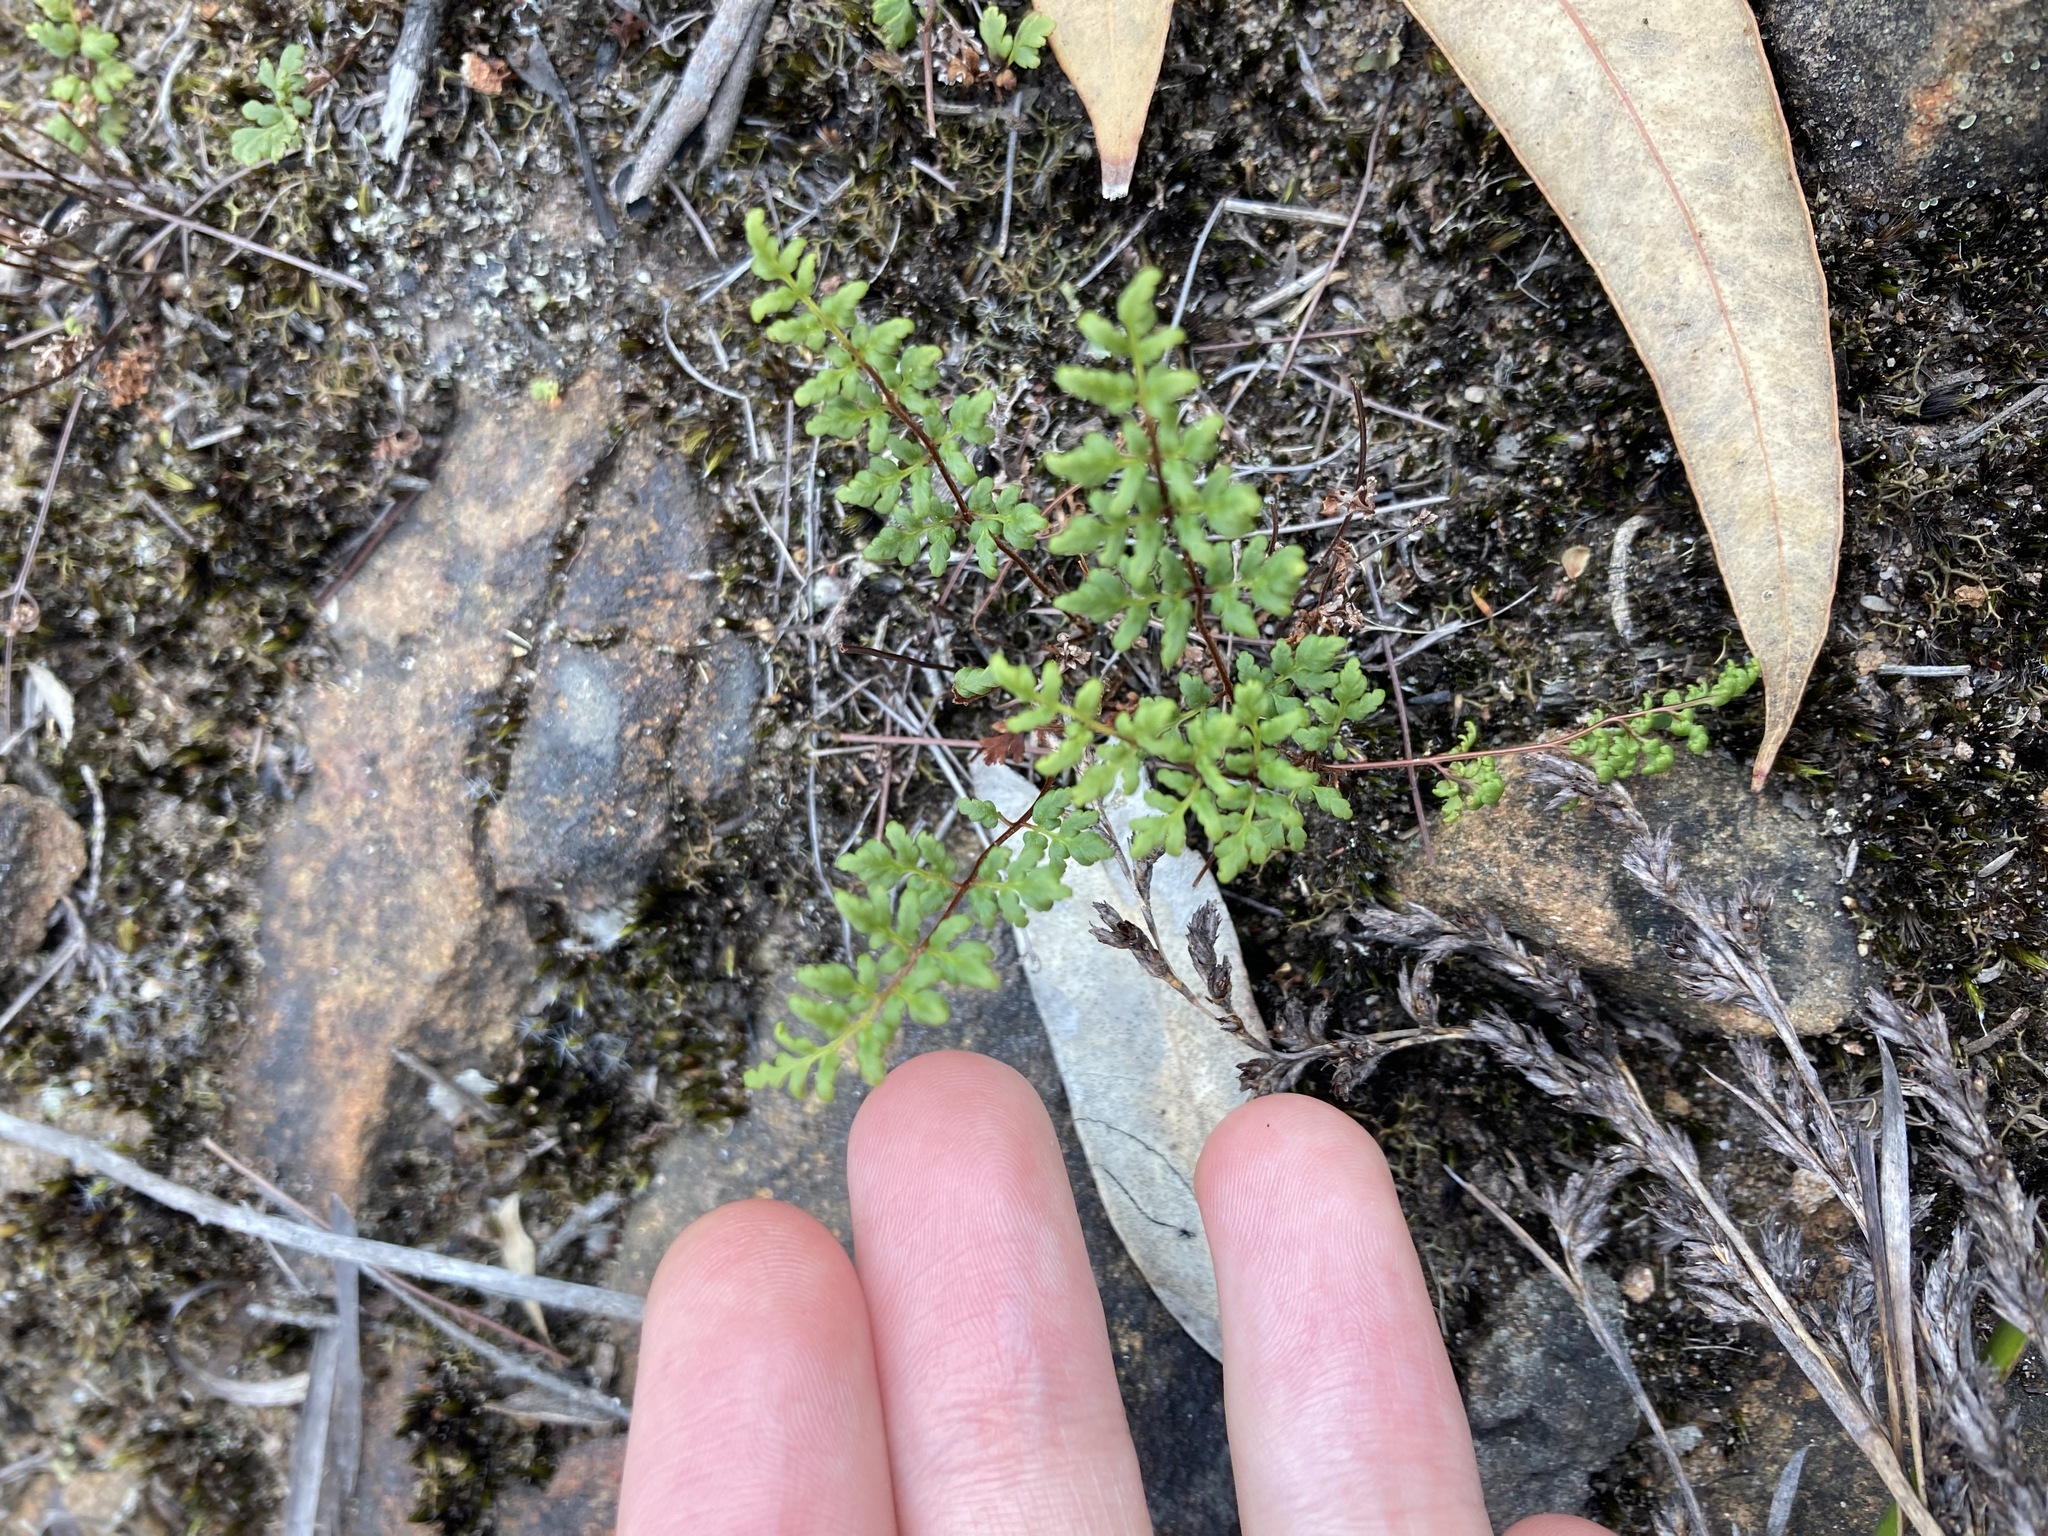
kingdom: Plantae
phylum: Tracheophyta
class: Polypodiopsida
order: Polypodiales
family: Pteridaceae
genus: Cheilanthes
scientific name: Cheilanthes sieberi
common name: Mulga fern
